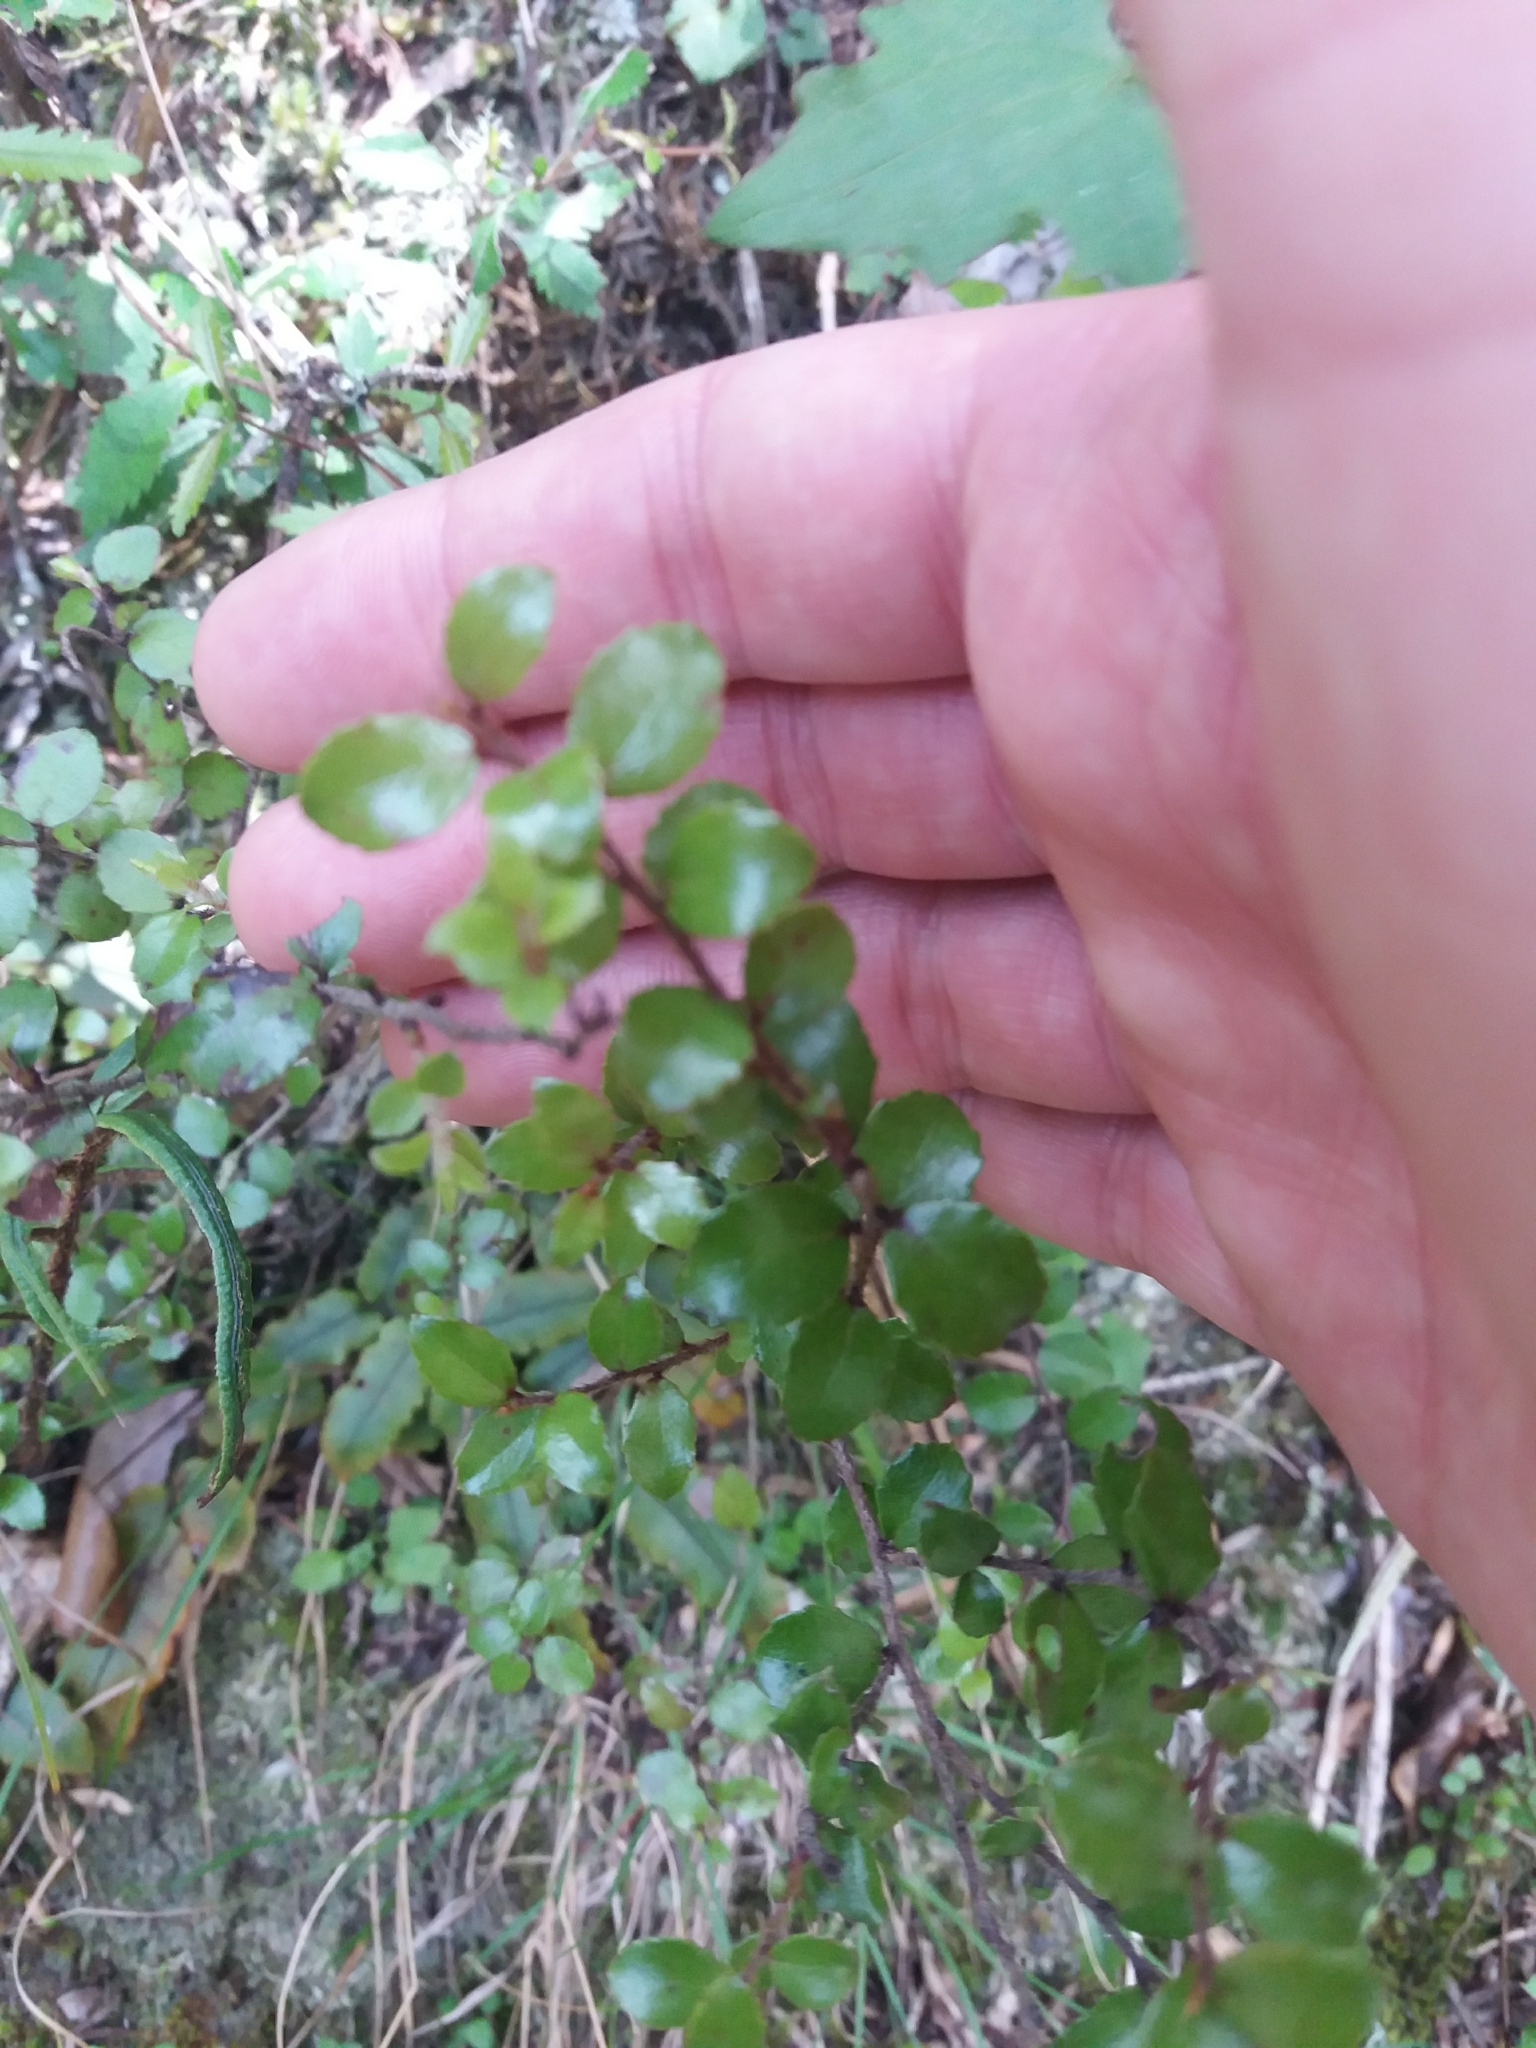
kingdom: Plantae
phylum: Tracheophyta
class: Magnoliopsida
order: Ericales
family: Ericaceae
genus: Gaultheria
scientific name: Gaultheria antipoda
